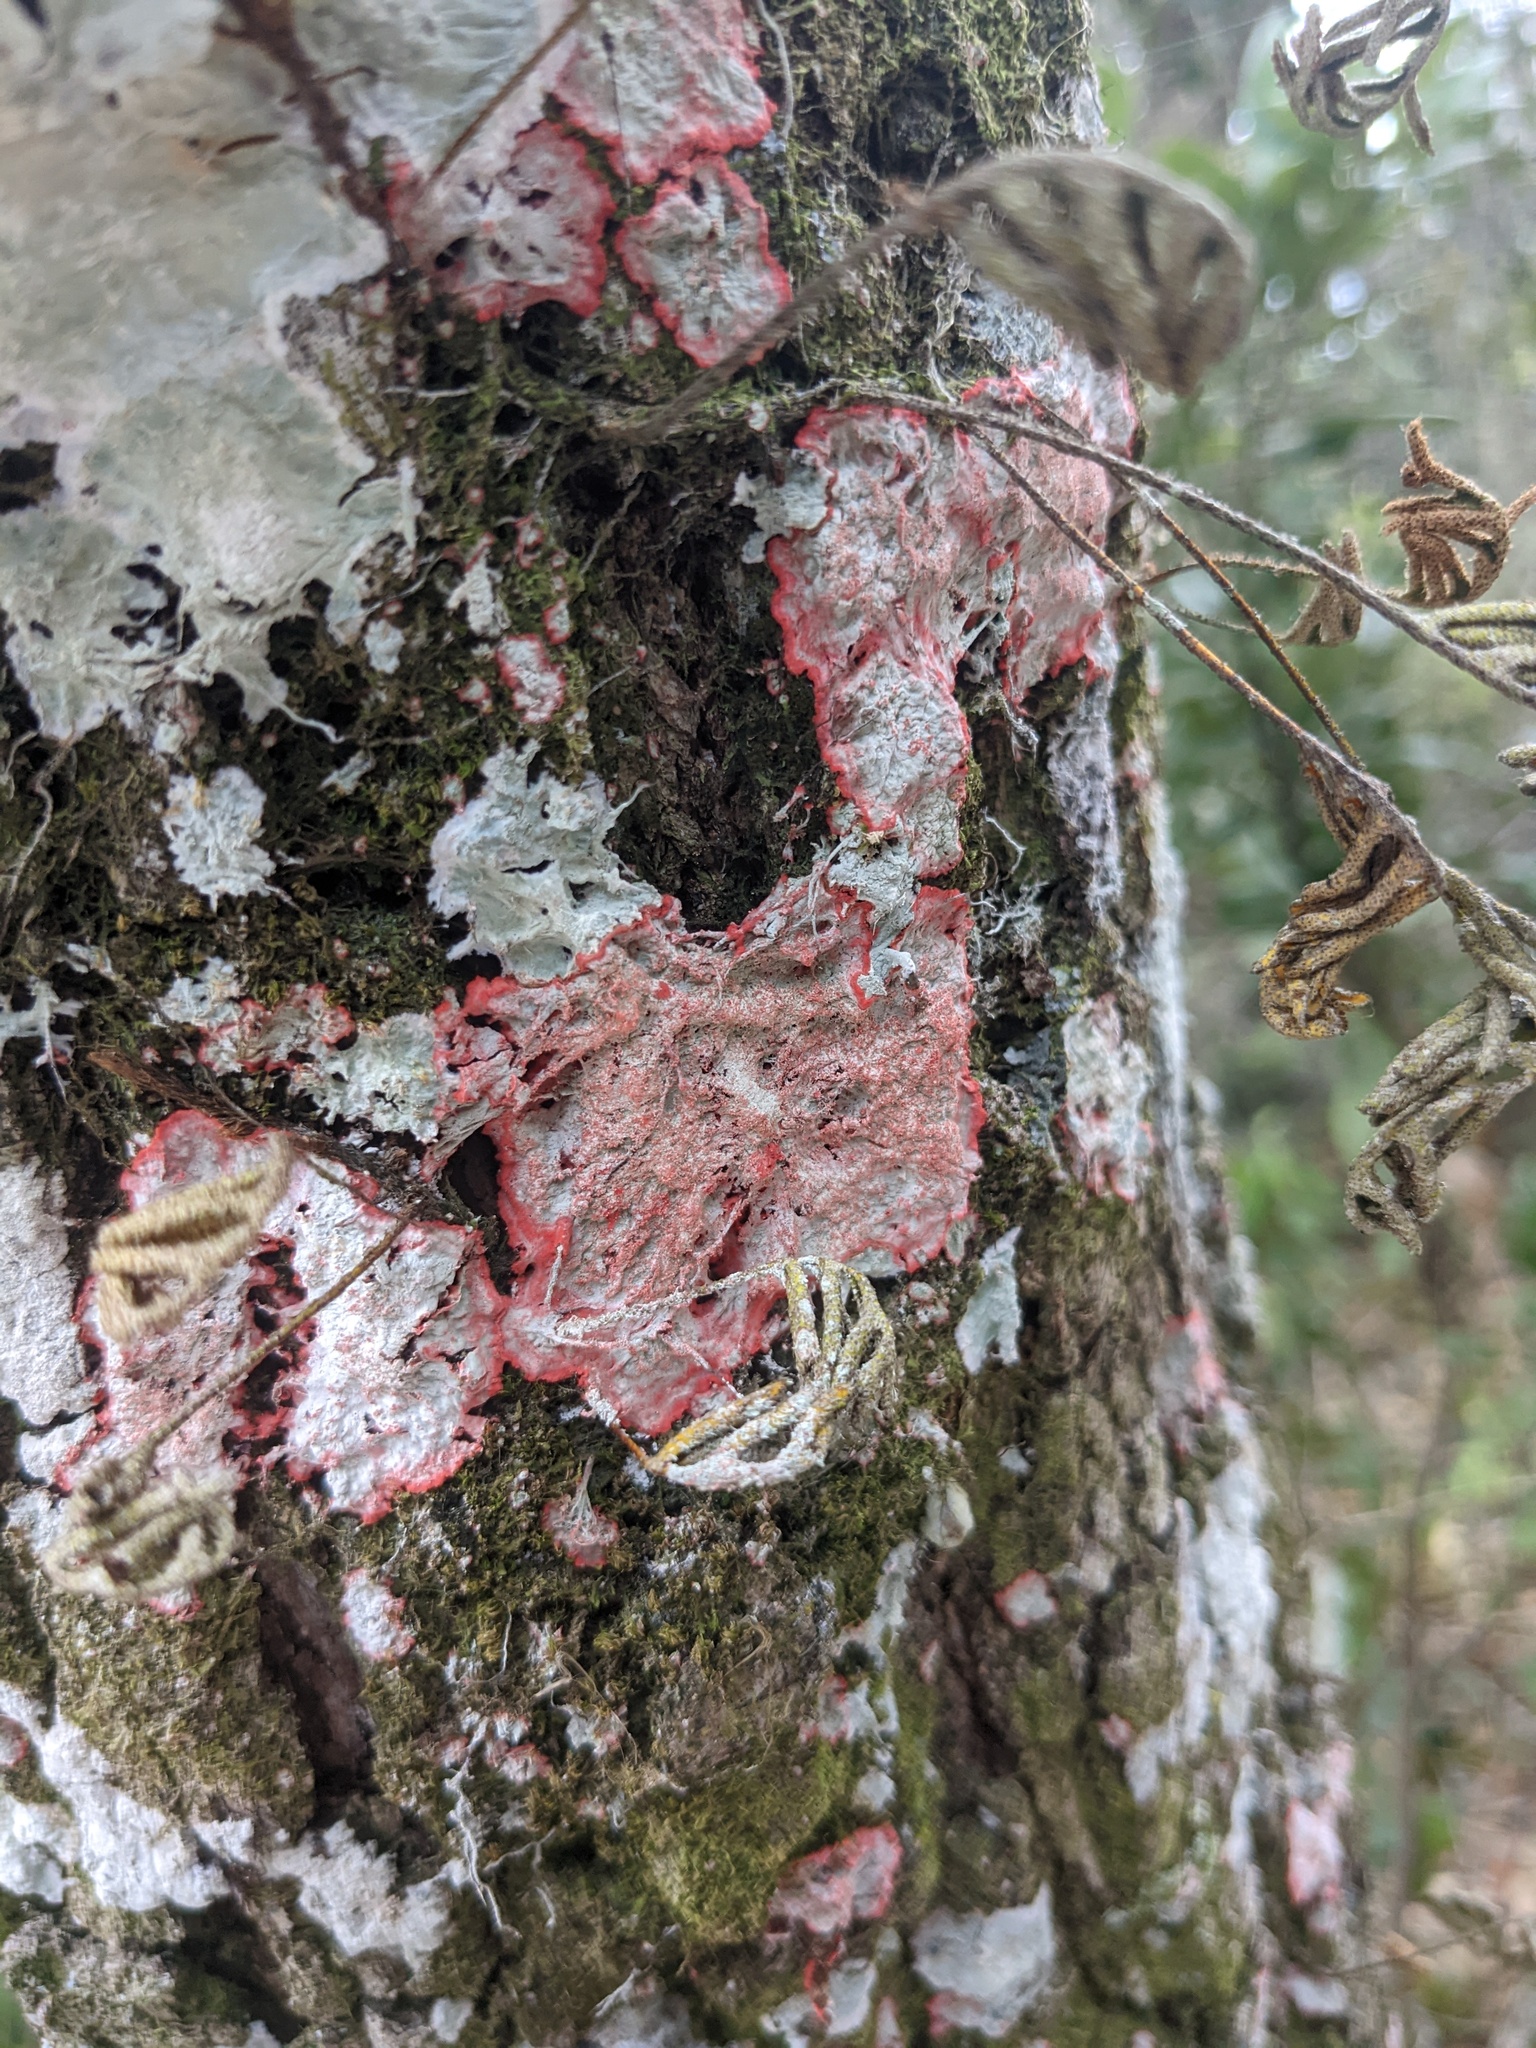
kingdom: Fungi
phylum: Ascomycota
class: Arthoniomycetes
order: Arthoniales
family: Arthoniaceae
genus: Herpothallon
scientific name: Herpothallon rubrocinctum
